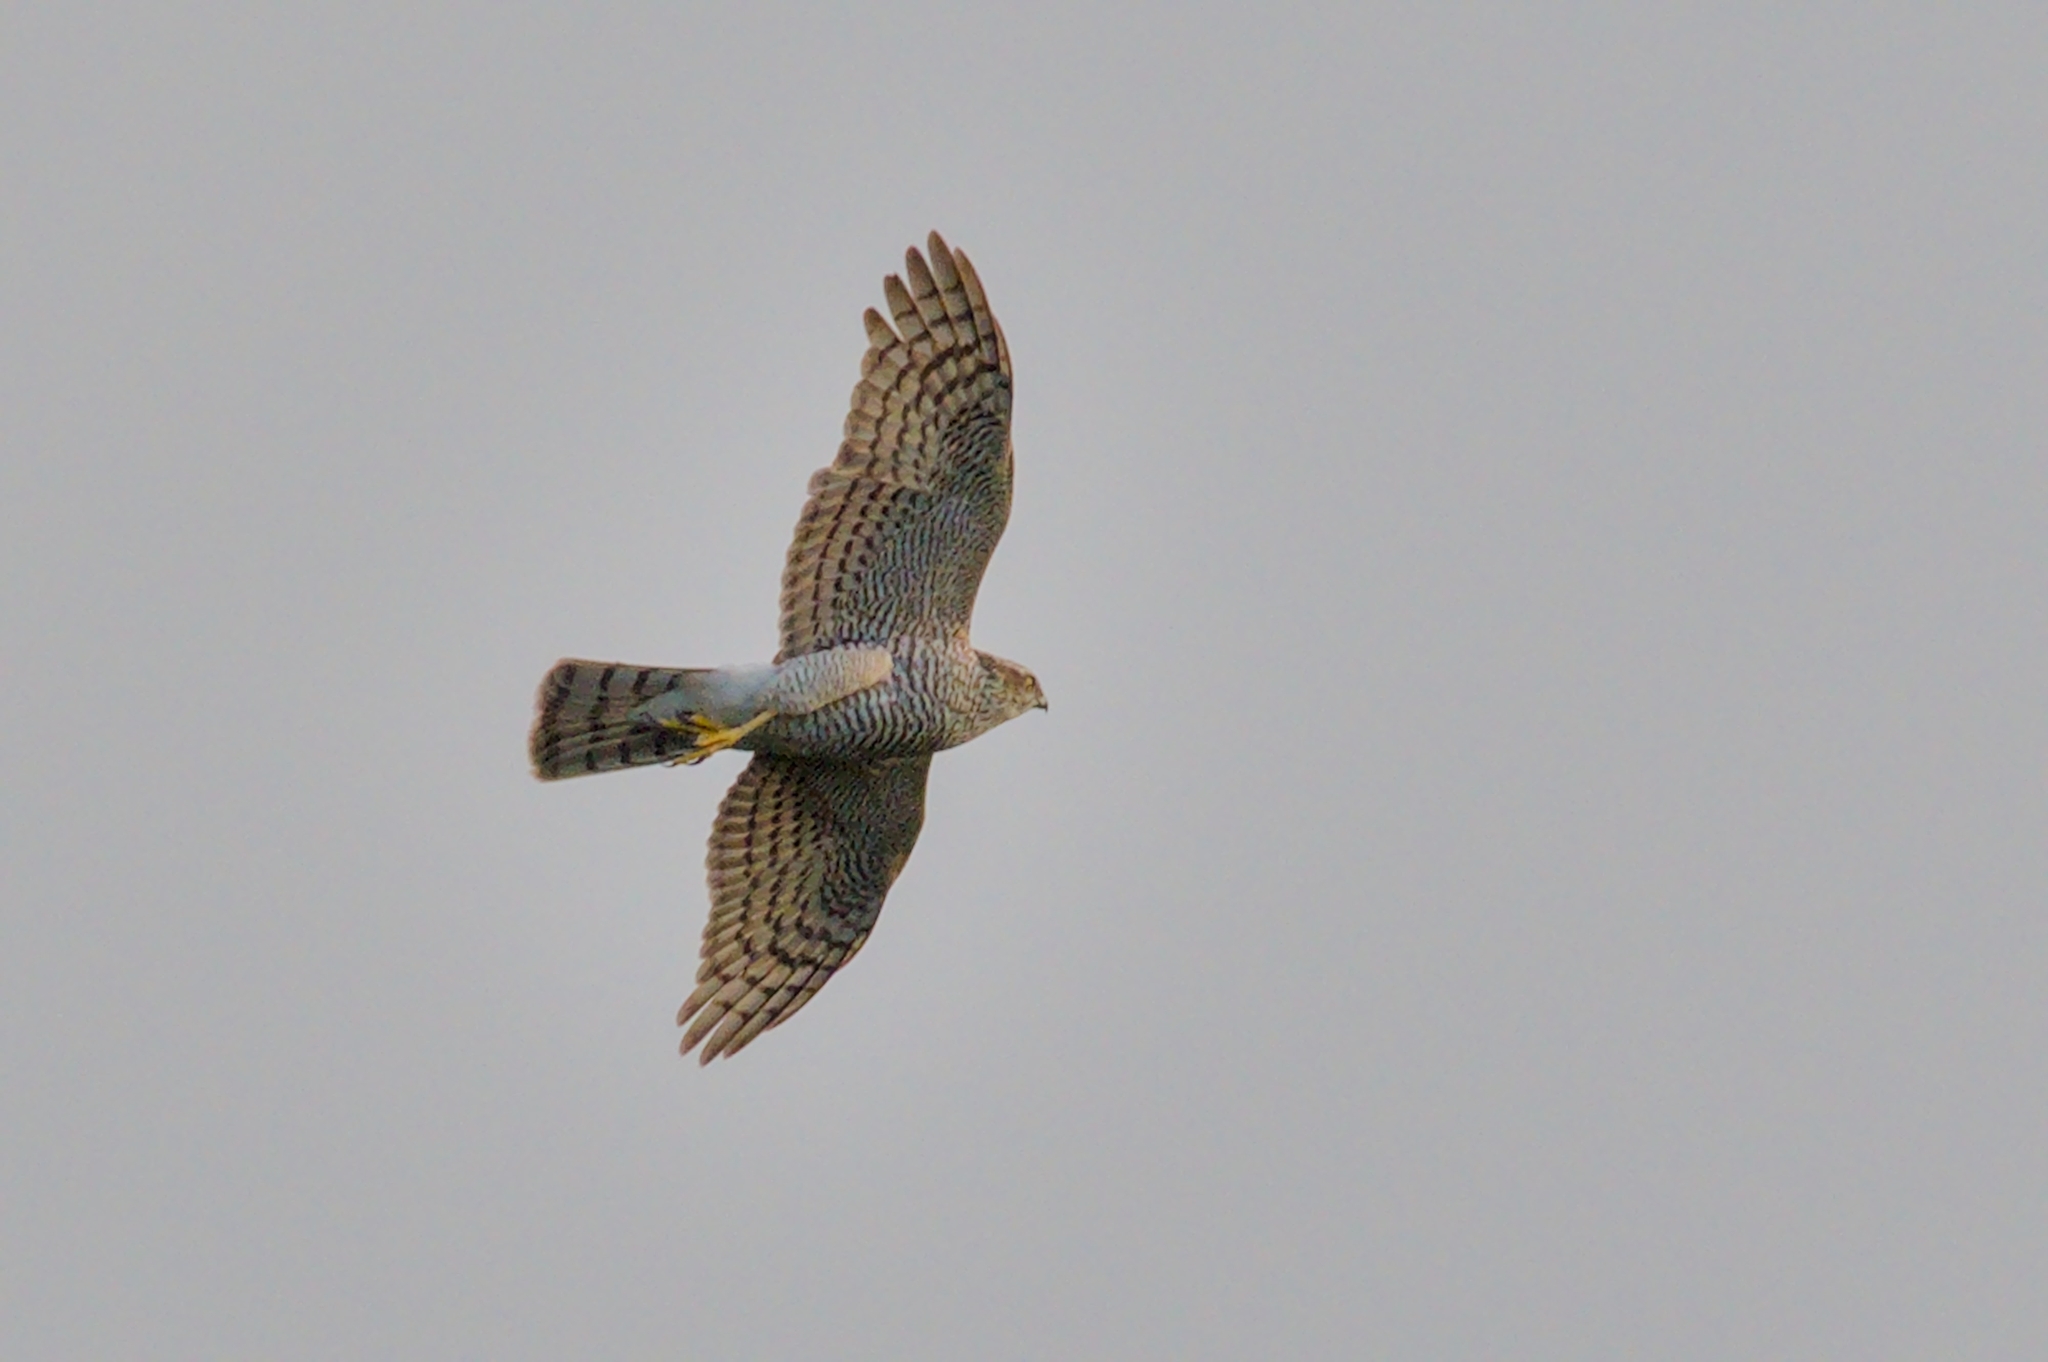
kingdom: Animalia
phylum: Chordata
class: Aves
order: Accipitriformes
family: Accipitridae
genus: Accipiter
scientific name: Accipiter nisus
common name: Eurasian sparrowhawk
